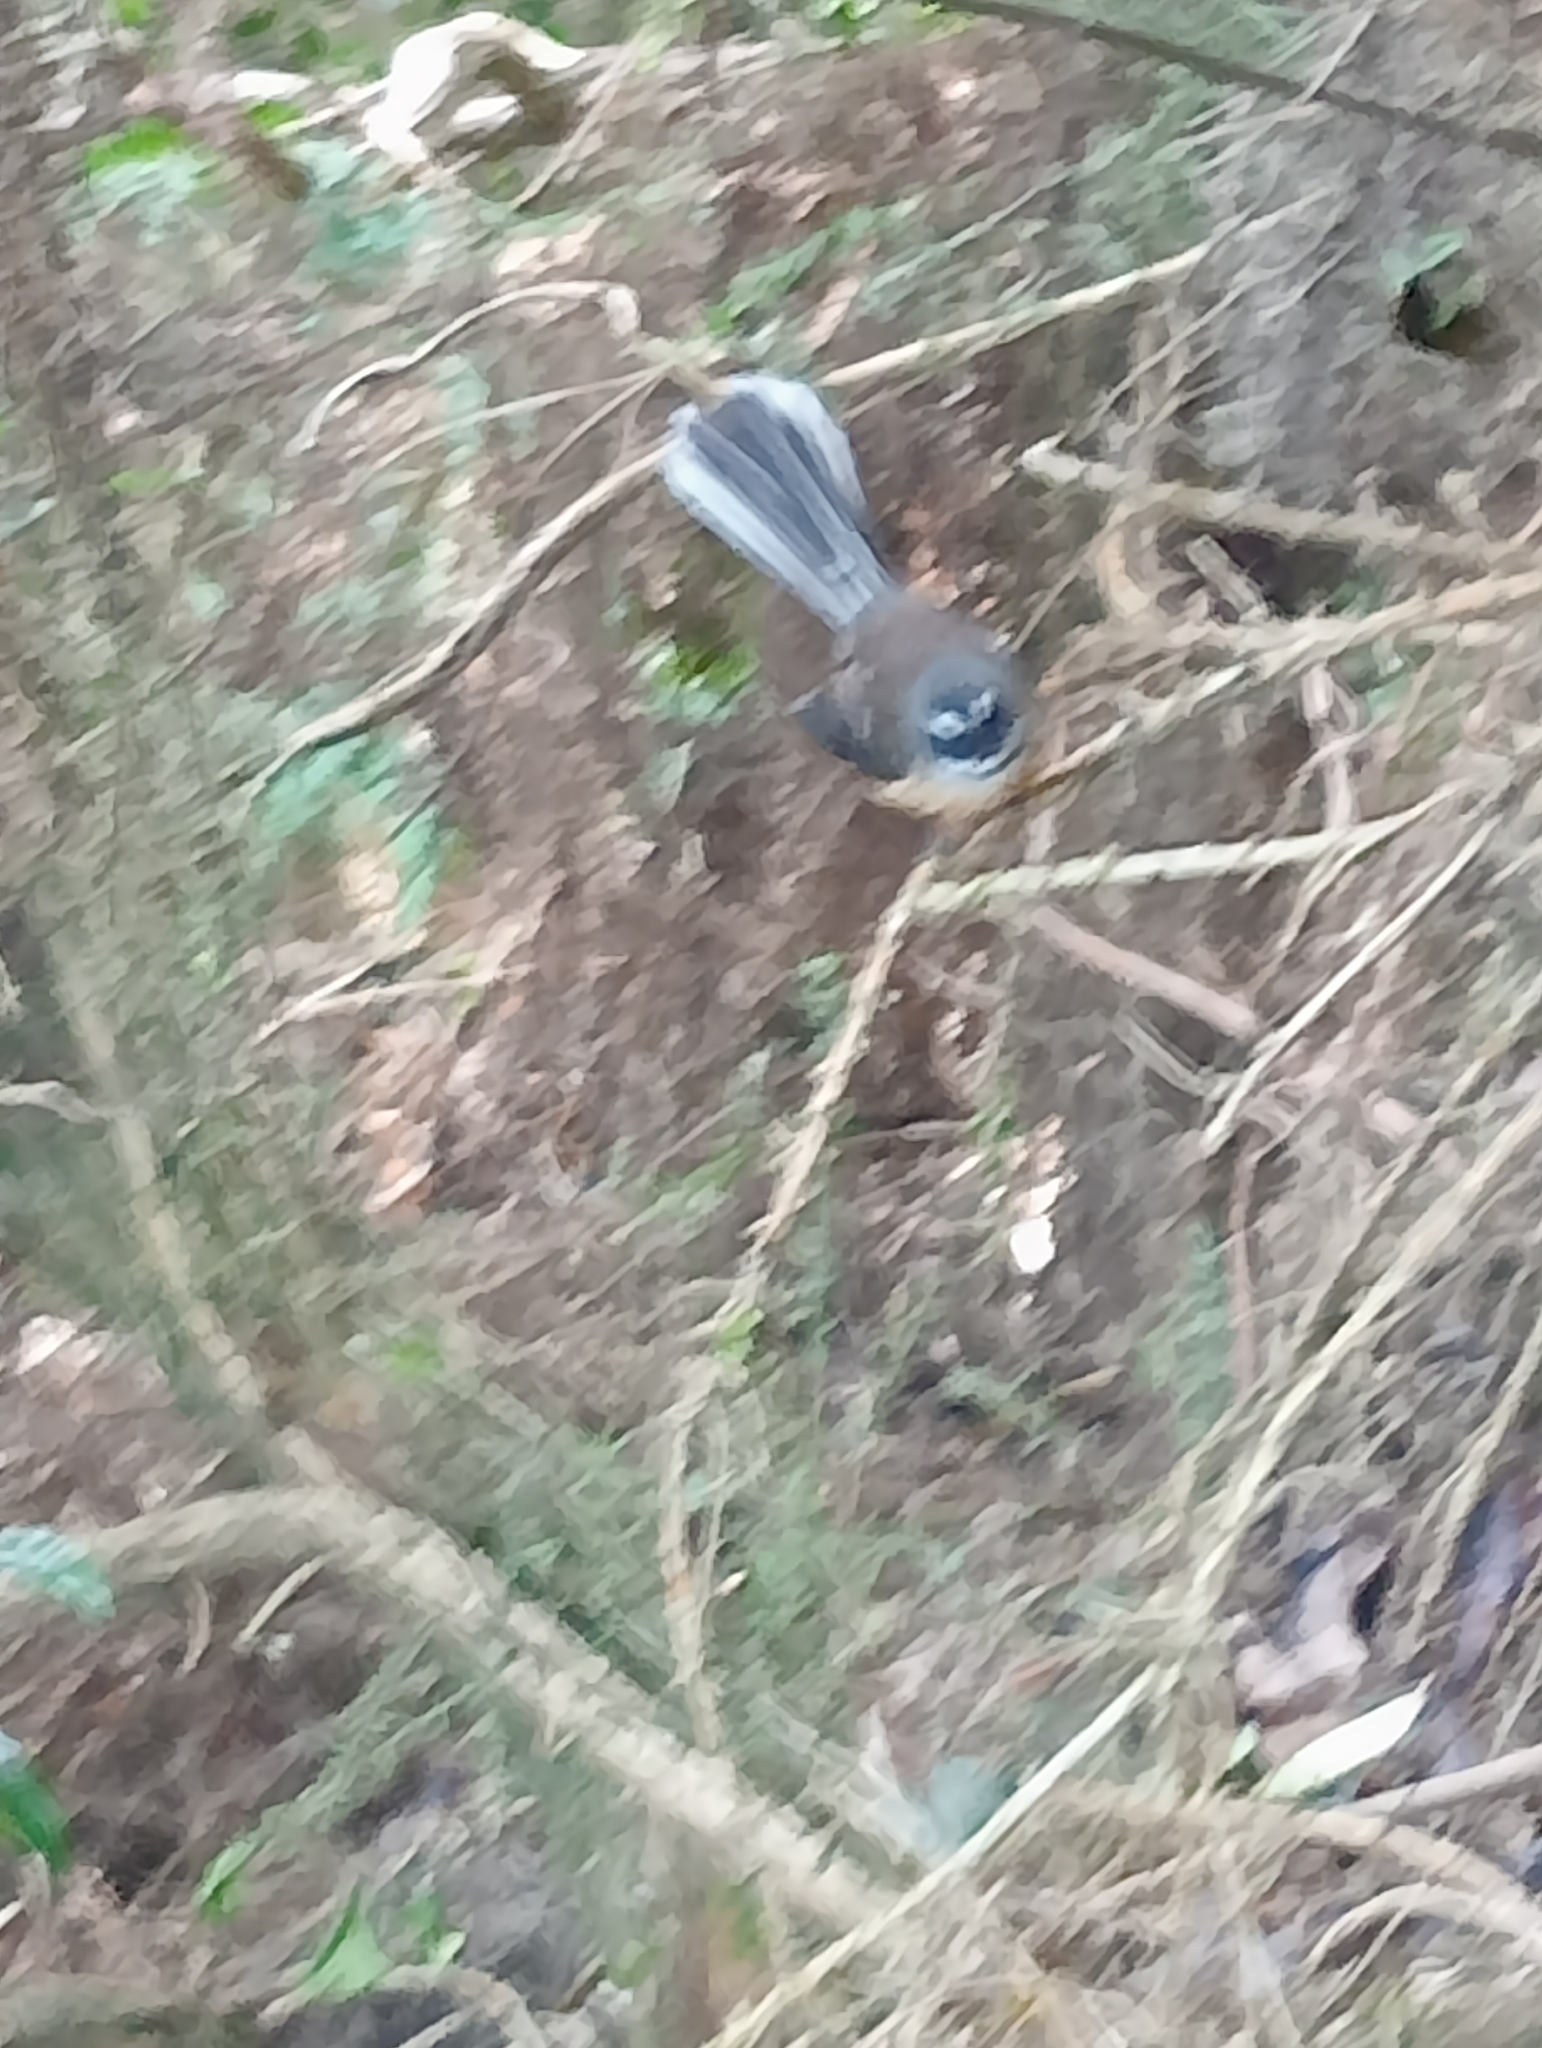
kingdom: Animalia
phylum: Chordata
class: Aves
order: Passeriformes
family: Rhipiduridae
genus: Rhipidura
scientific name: Rhipidura fuliginosa
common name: New zealand fantail
